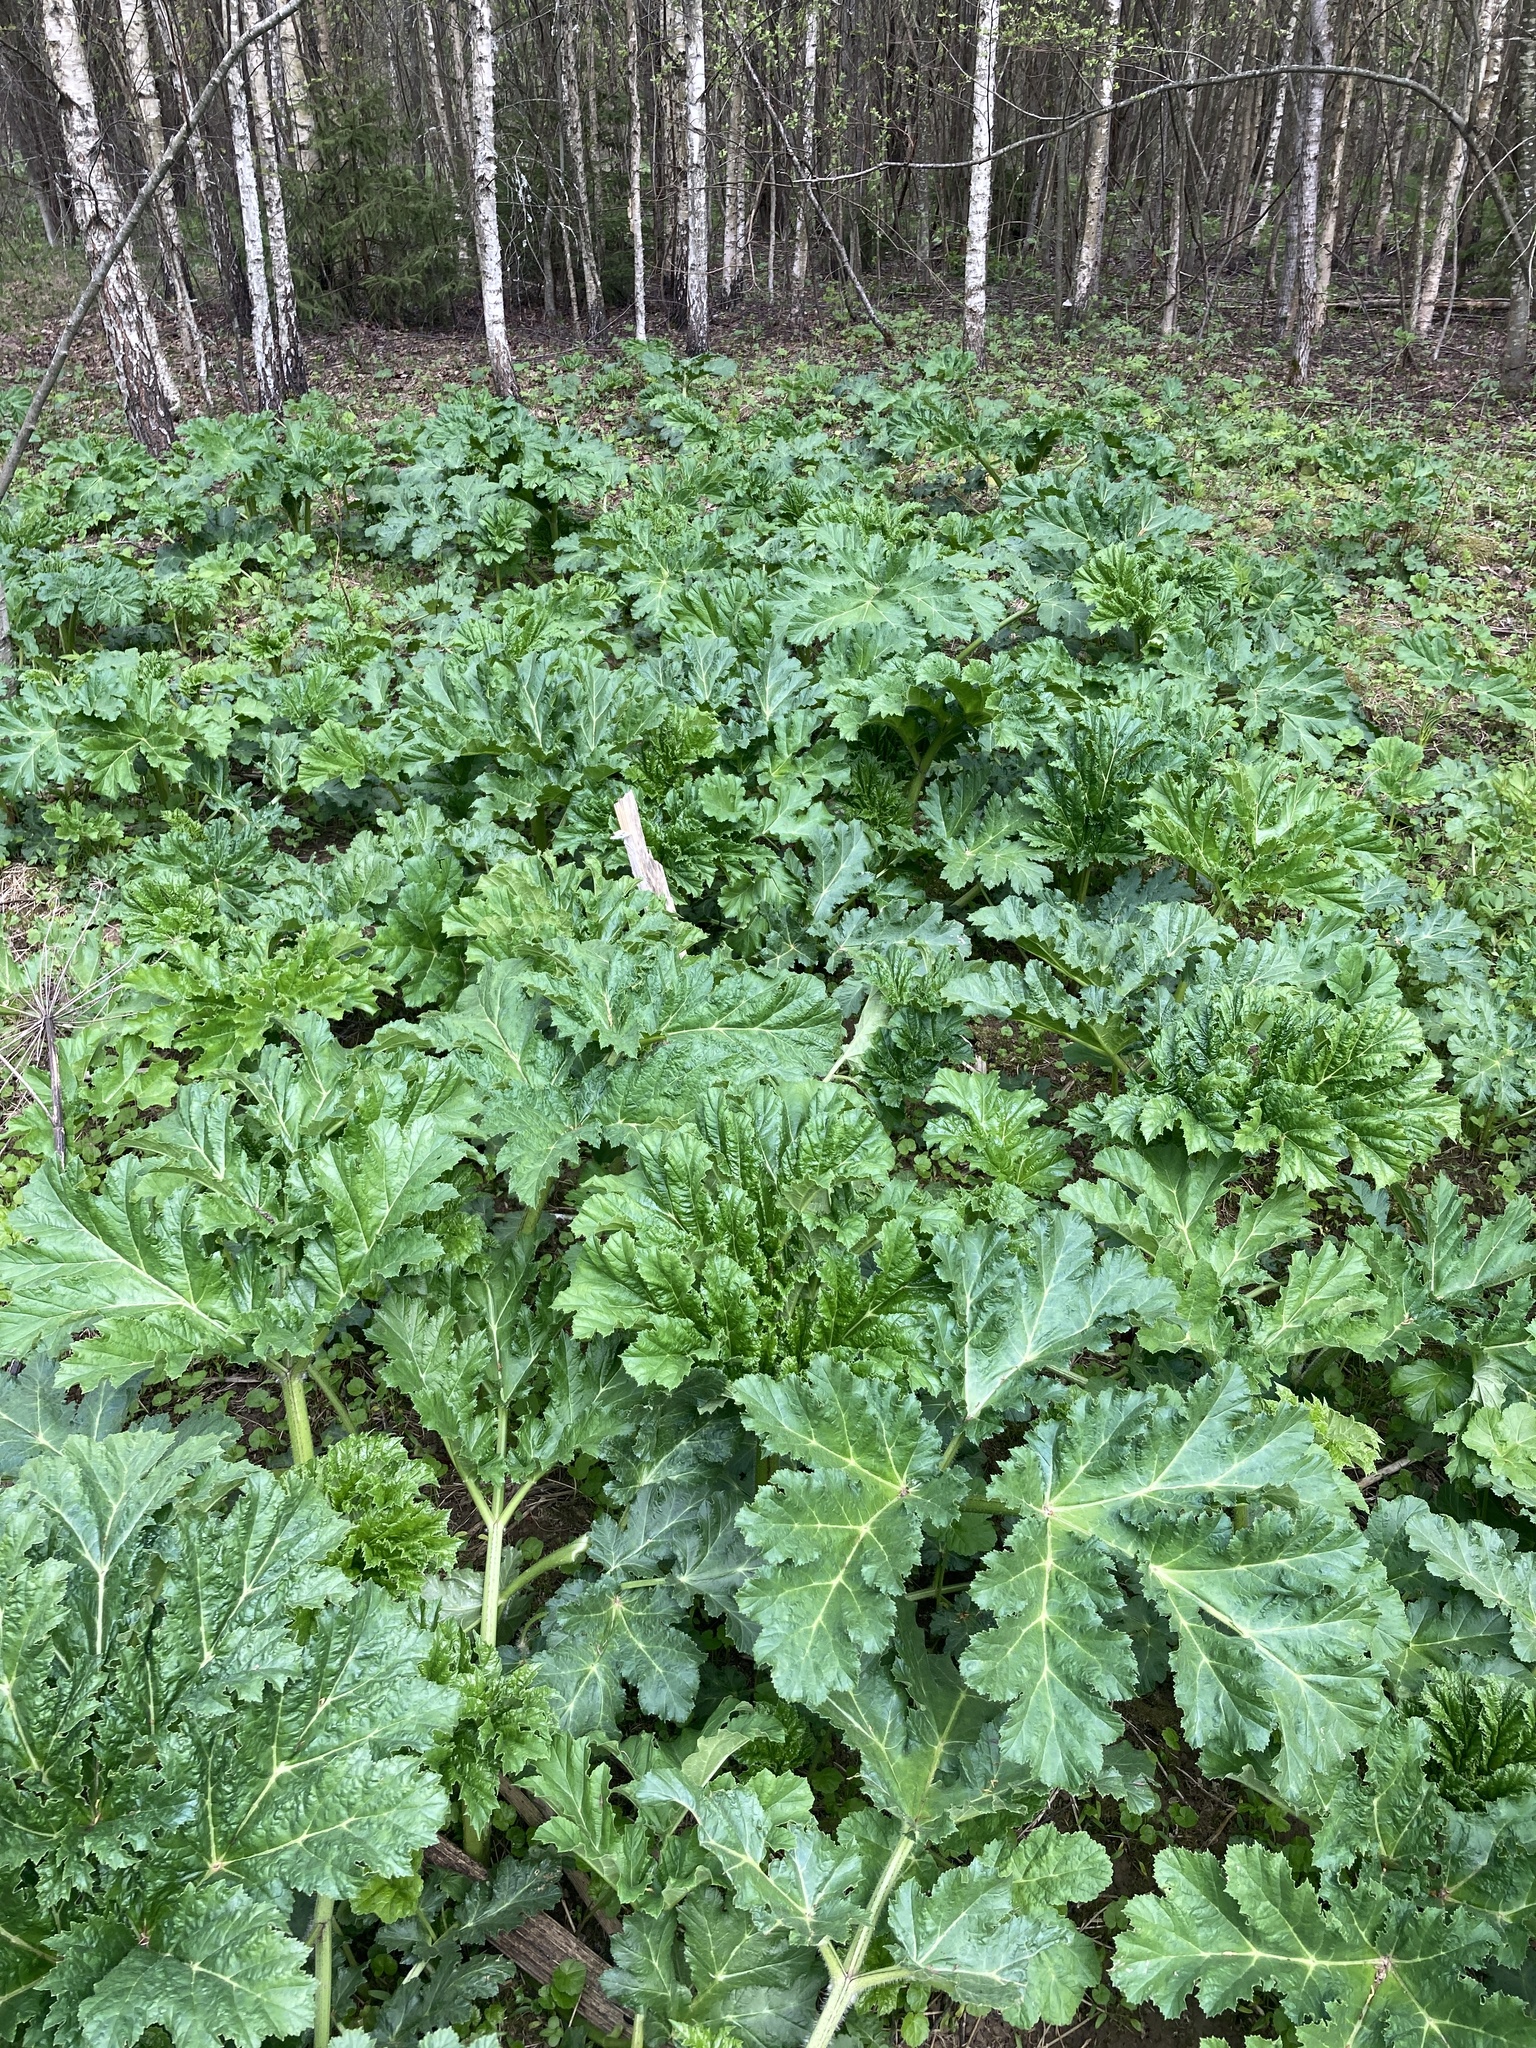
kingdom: Plantae
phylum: Tracheophyta
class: Magnoliopsida
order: Apiales
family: Apiaceae
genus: Heracleum
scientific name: Heracleum sosnowskyi
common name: Sosnowsky's hogweed
